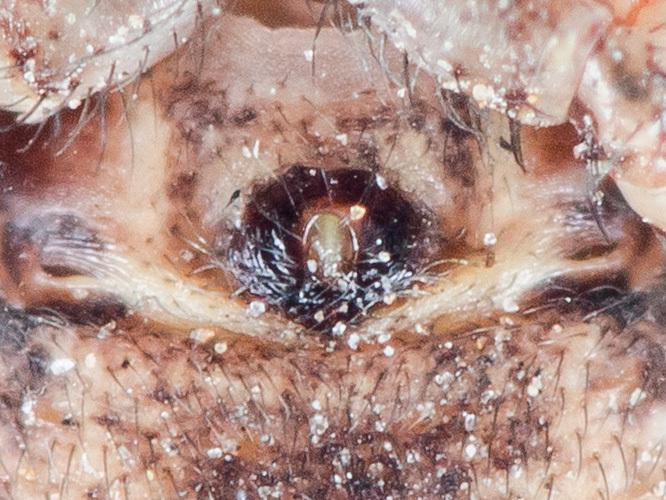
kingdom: Animalia
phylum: Arthropoda
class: Arachnida
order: Araneae
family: Thomisidae
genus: Psammitis
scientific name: Psammitis minor
